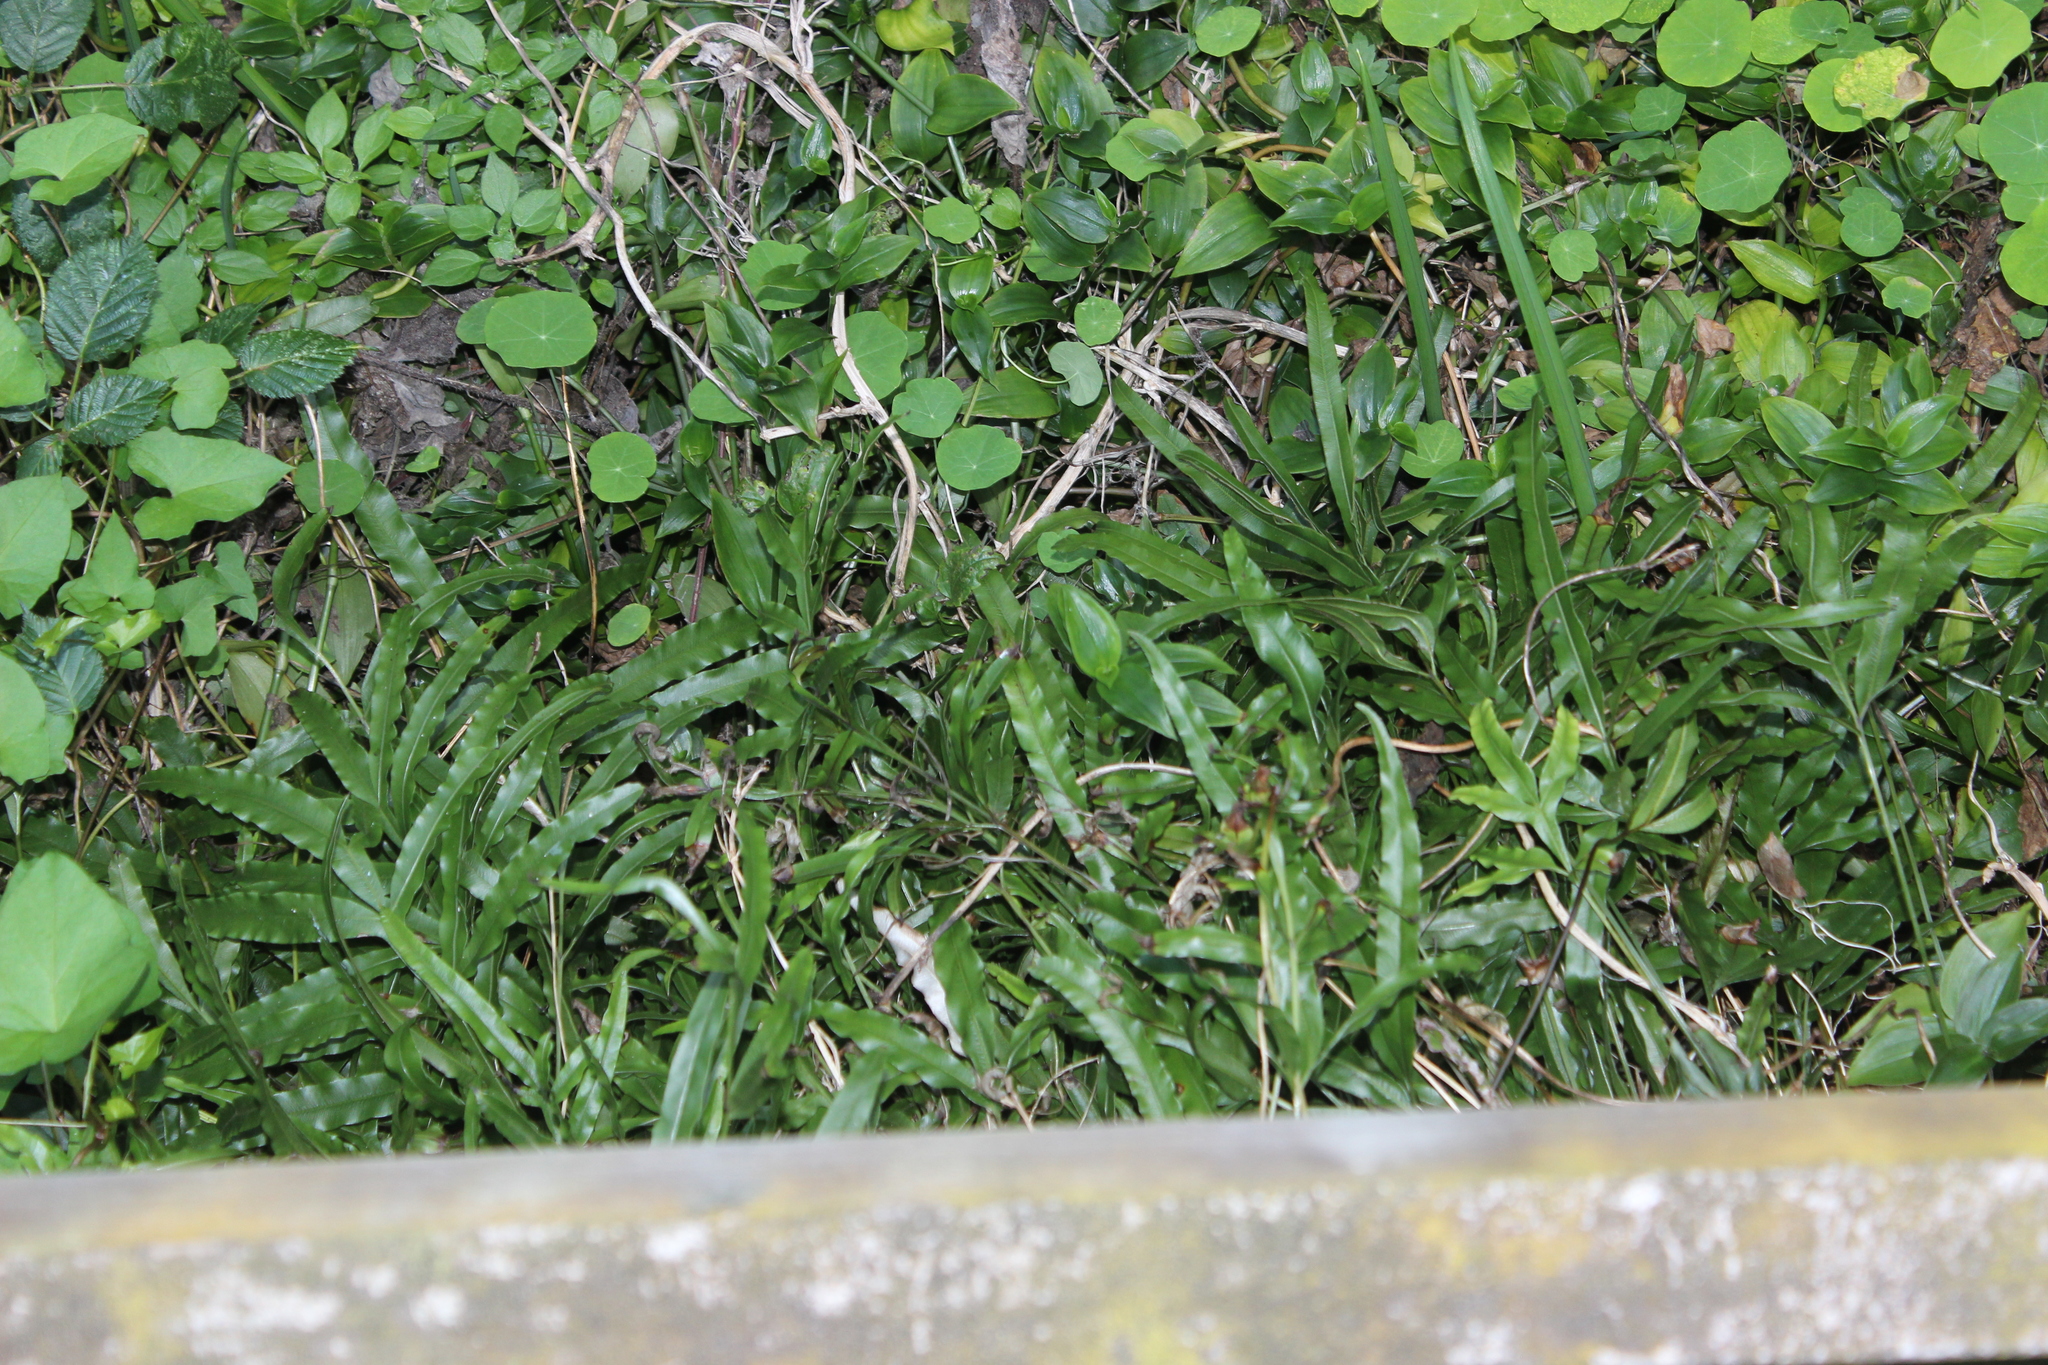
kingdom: Plantae
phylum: Tracheophyta
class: Polypodiopsida
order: Polypodiales
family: Pteridaceae
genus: Pteris
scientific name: Pteris cretica
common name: Ribbon fern
